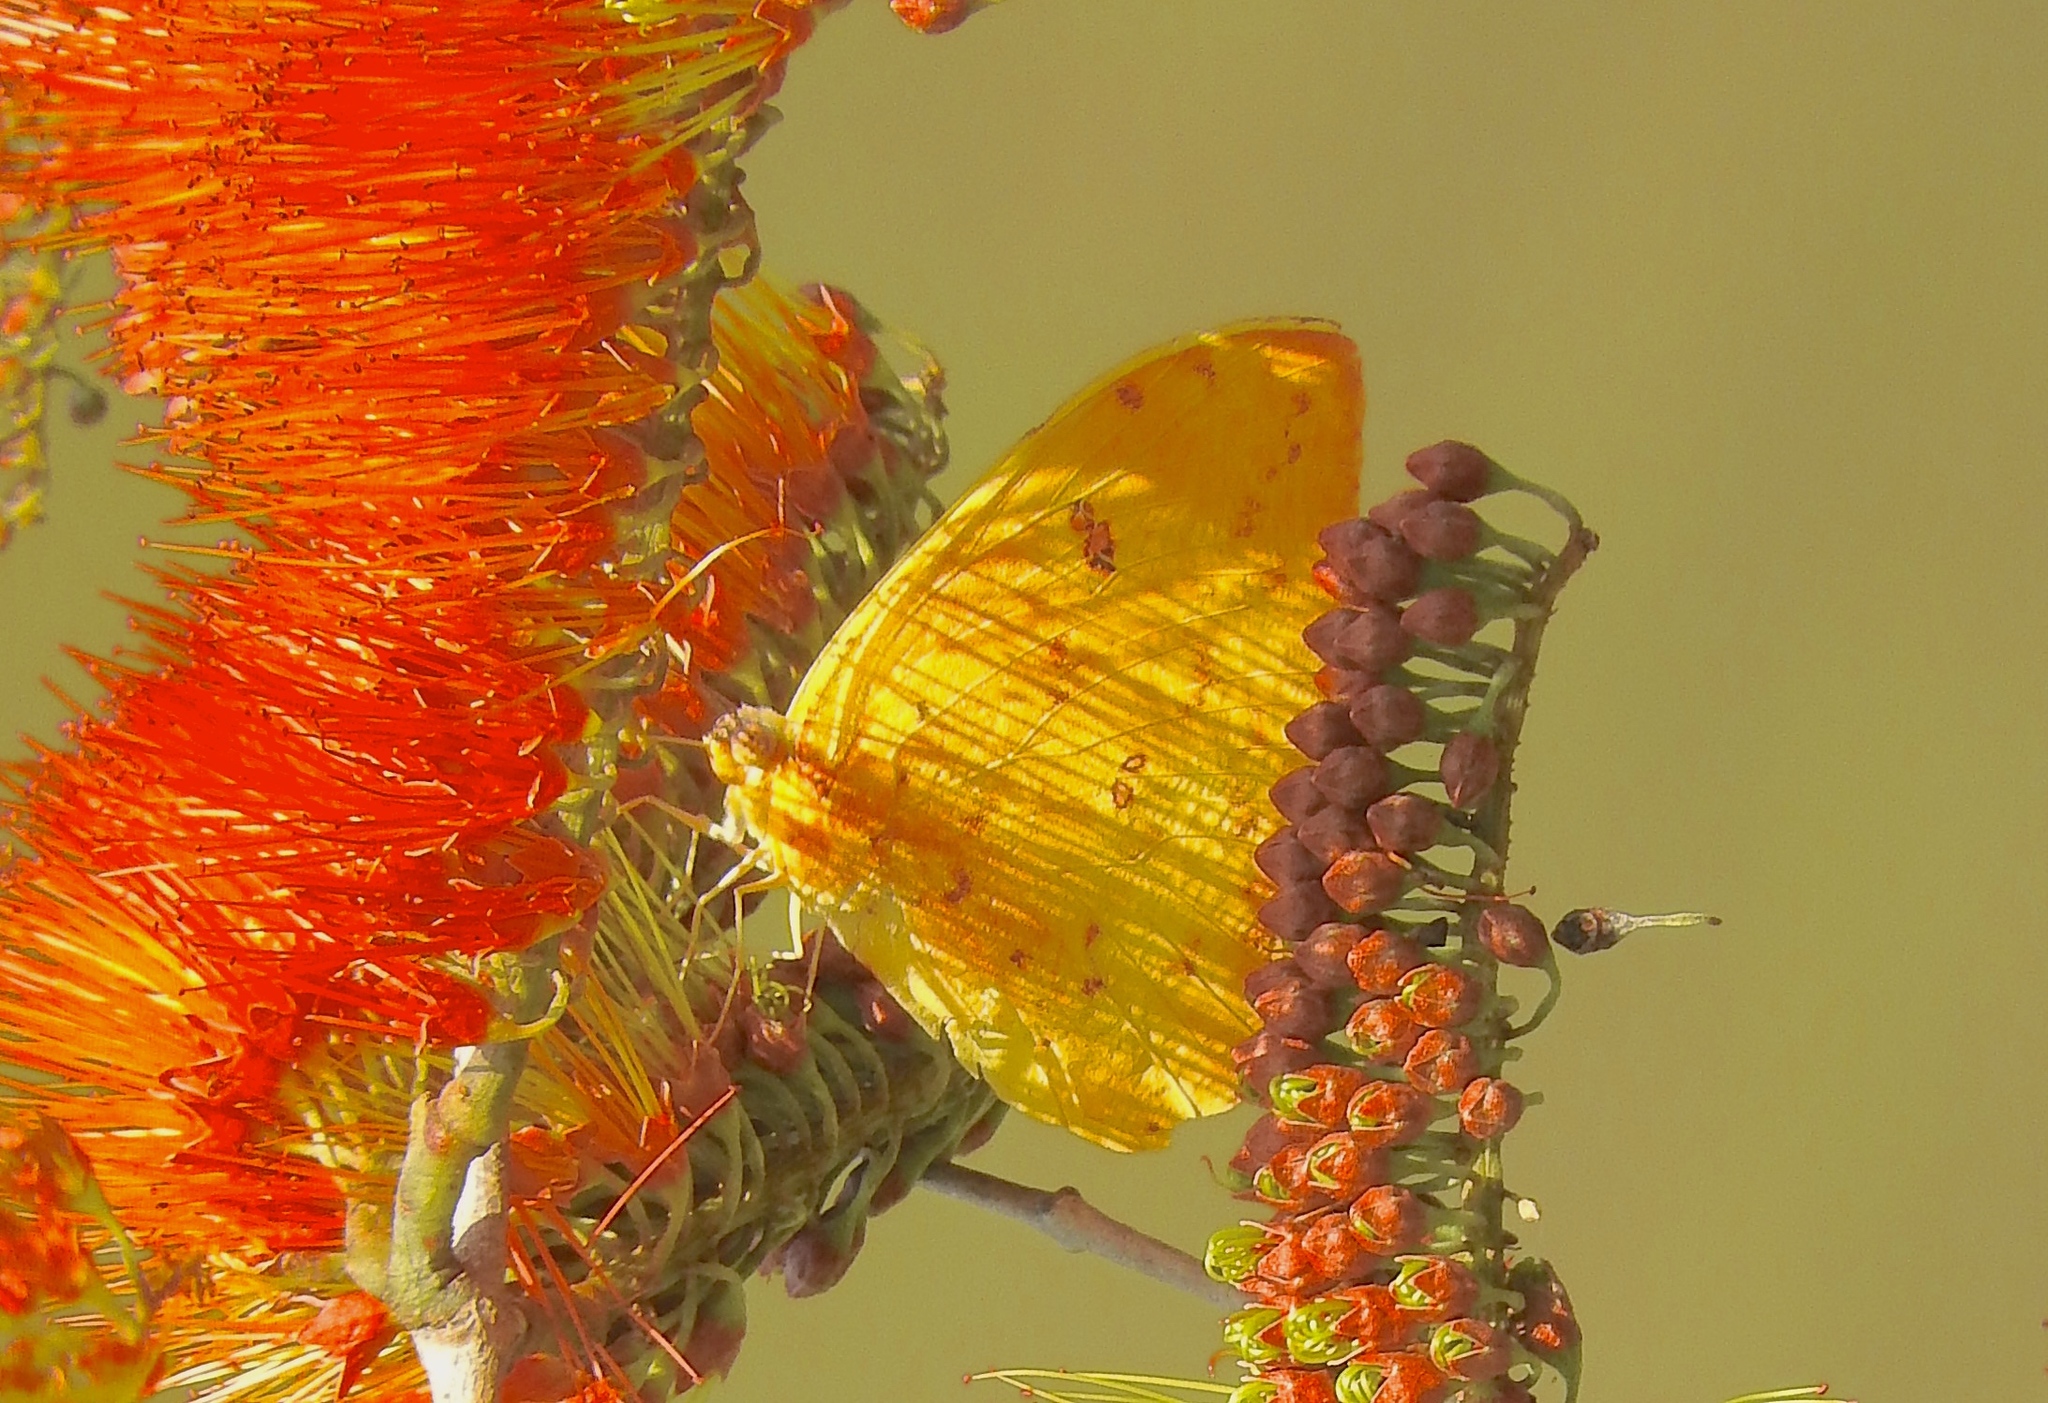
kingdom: Animalia
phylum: Arthropoda
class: Insecta
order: Lepidoptera
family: Pieridae
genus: Phoebis
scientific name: Phoebis sennae
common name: Cloudless sulphur
